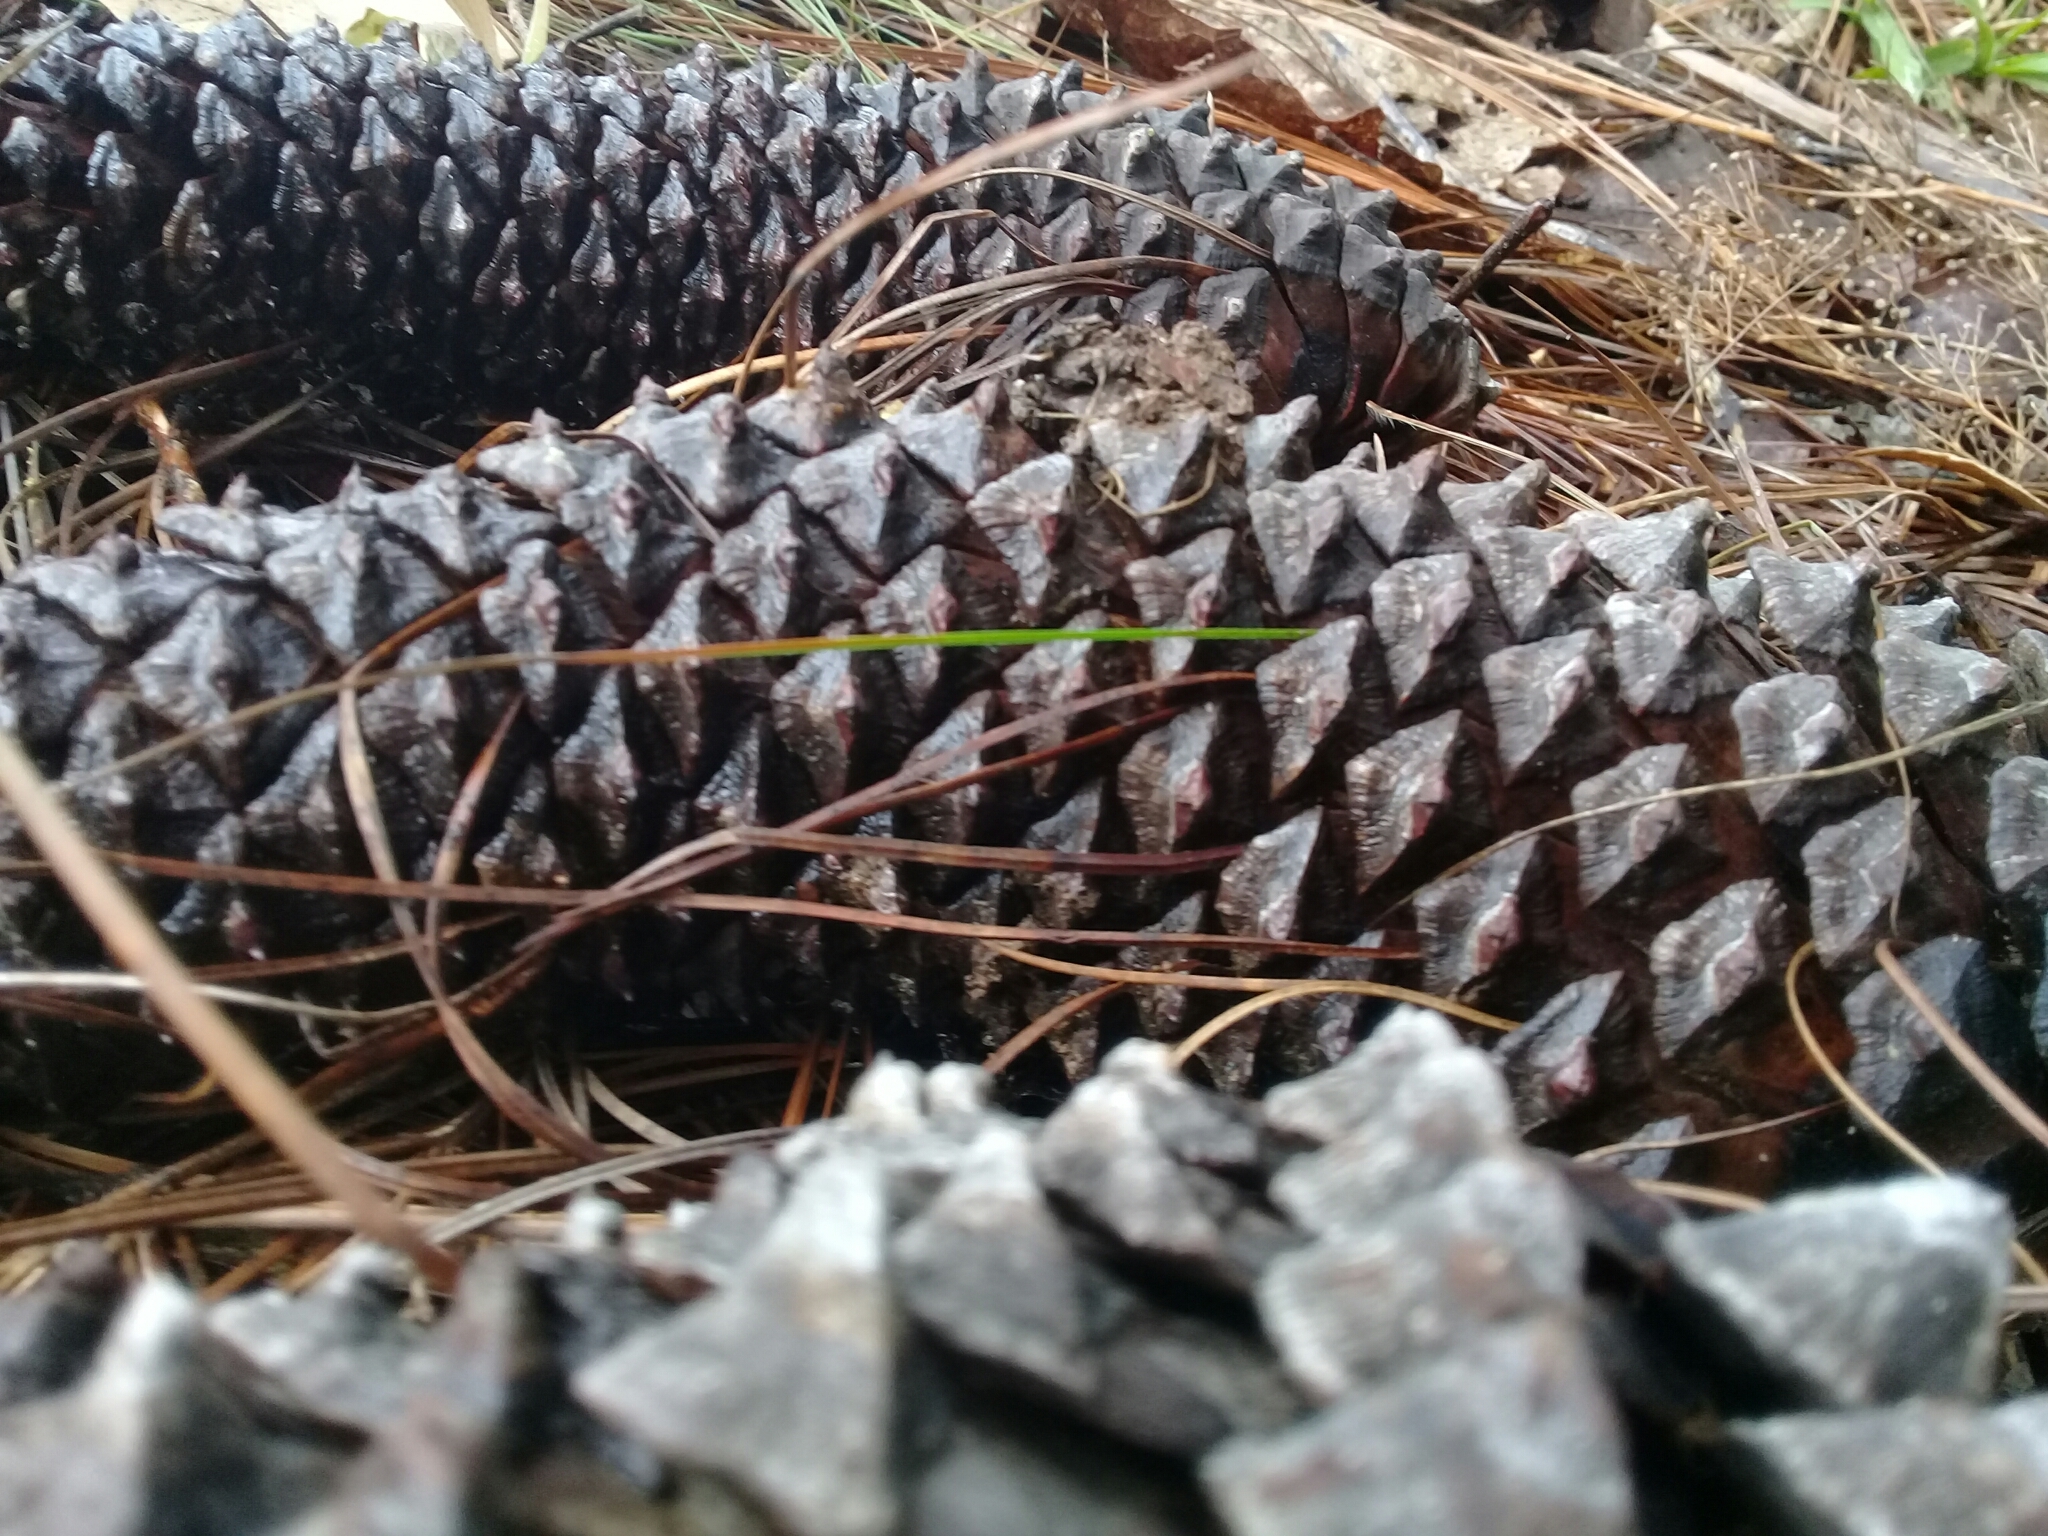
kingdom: Plantae
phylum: Tracheophyta
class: Pinopsida
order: Pinales
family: Pinaceae
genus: Pinus
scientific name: Pinus devoniana
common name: Michoacan pine
